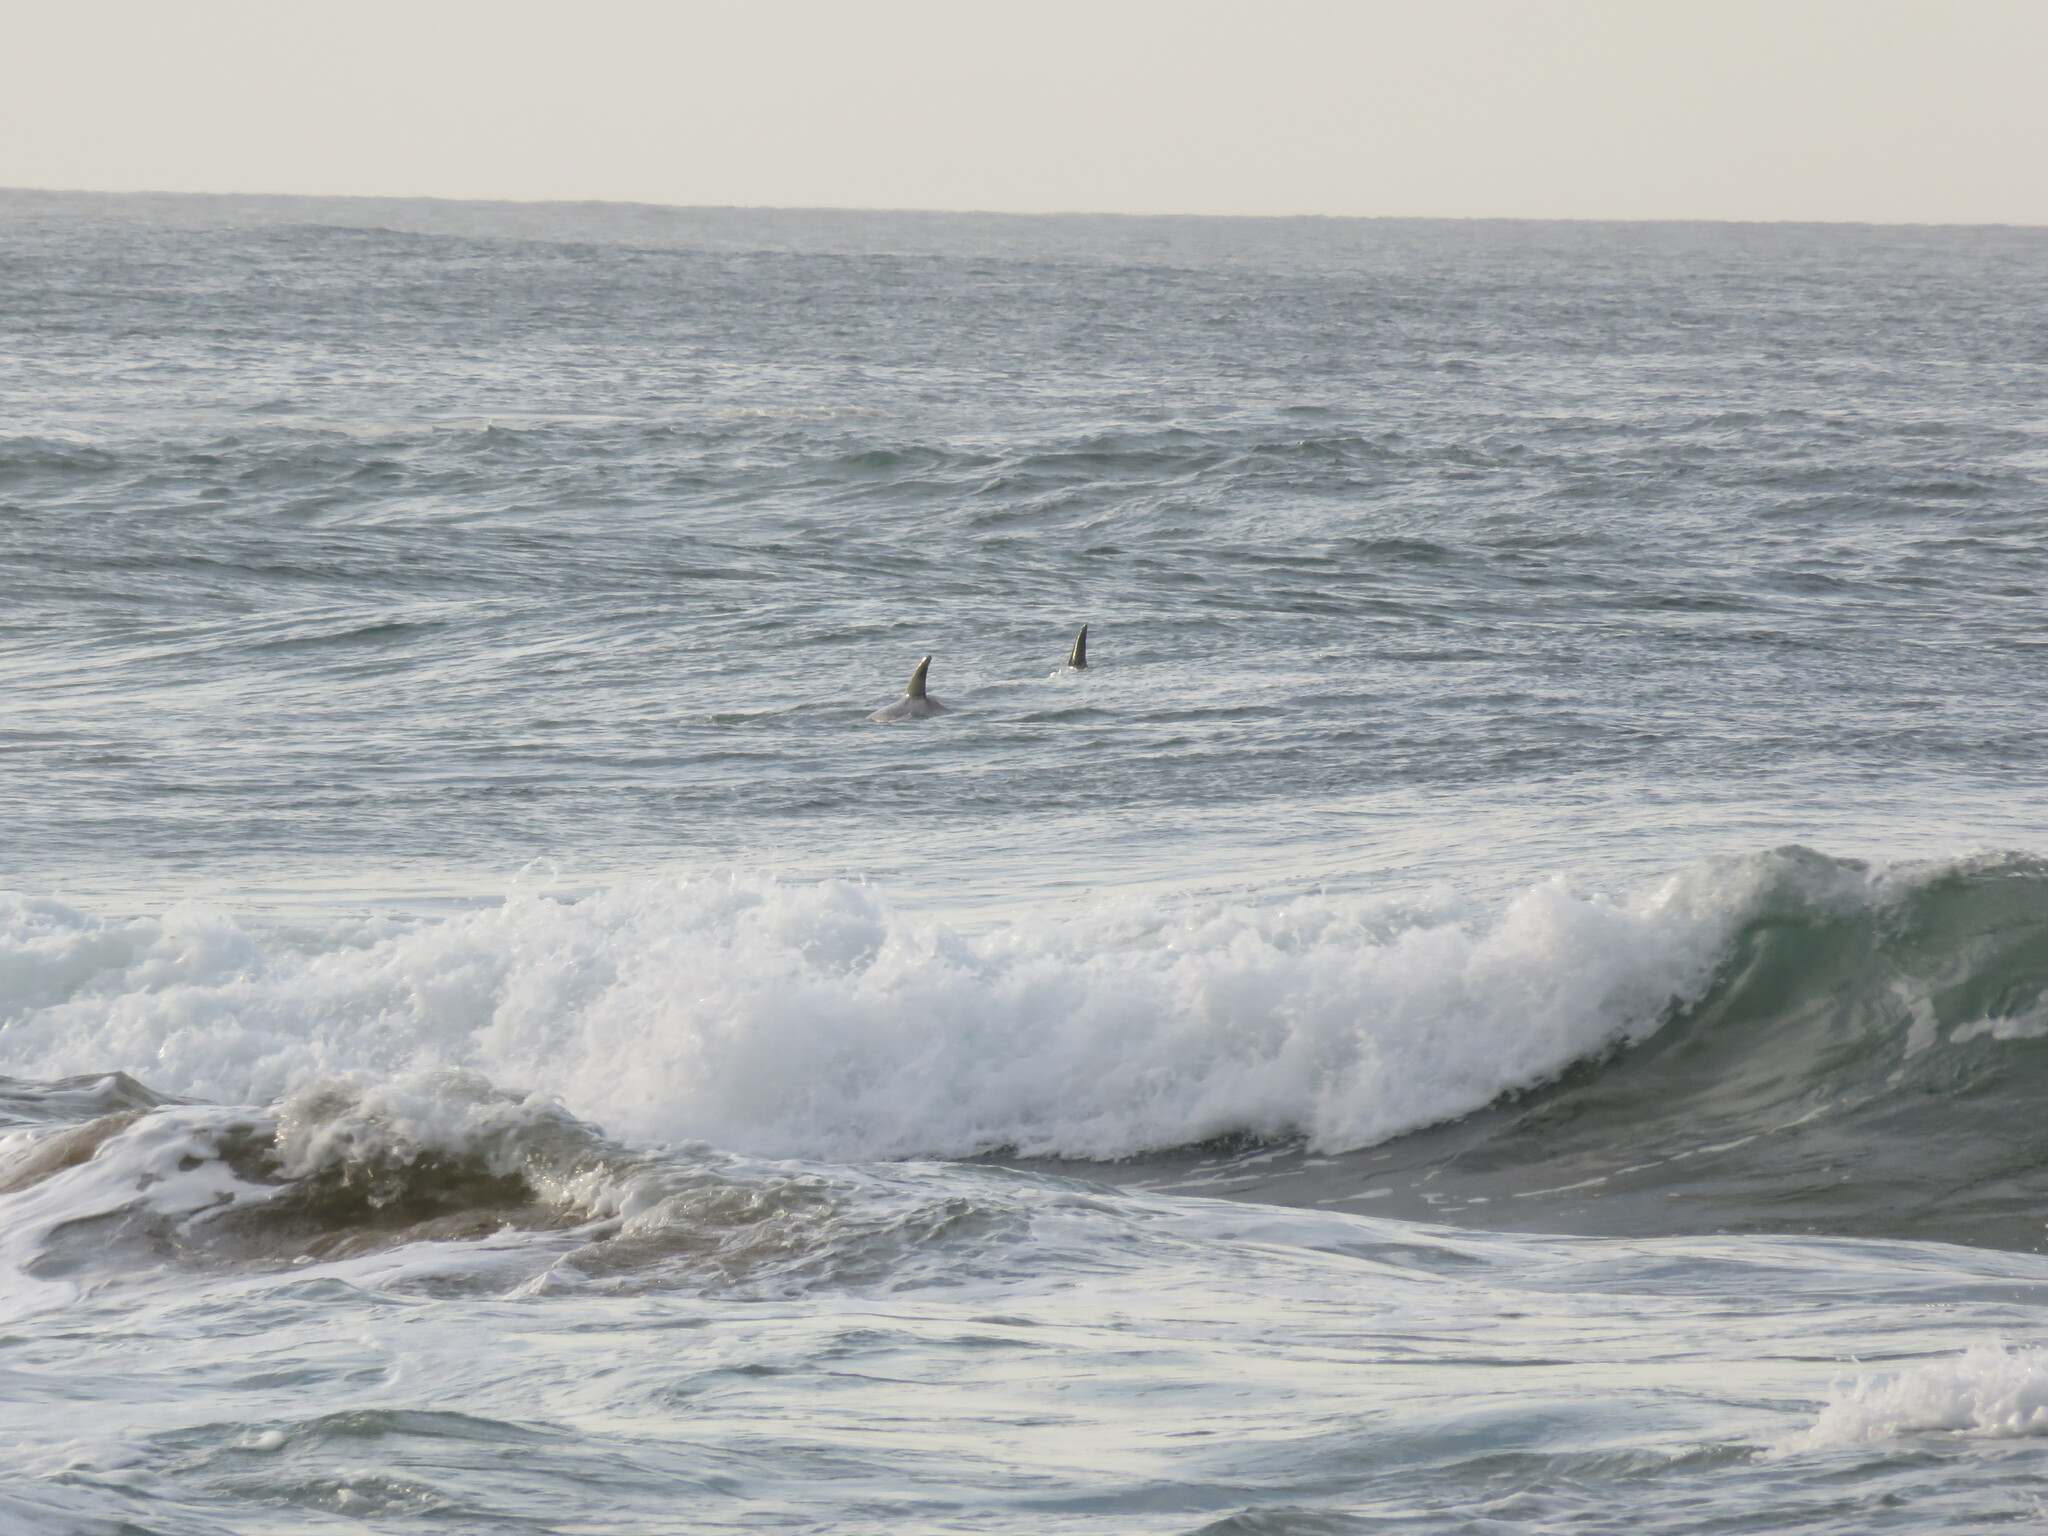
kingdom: Animalia
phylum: Chordata
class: Mammalia
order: Cetacea
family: Delphinidae
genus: Tursiops
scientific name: Tursiops aduncus
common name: Indo-pacific bottlenose dolphin
